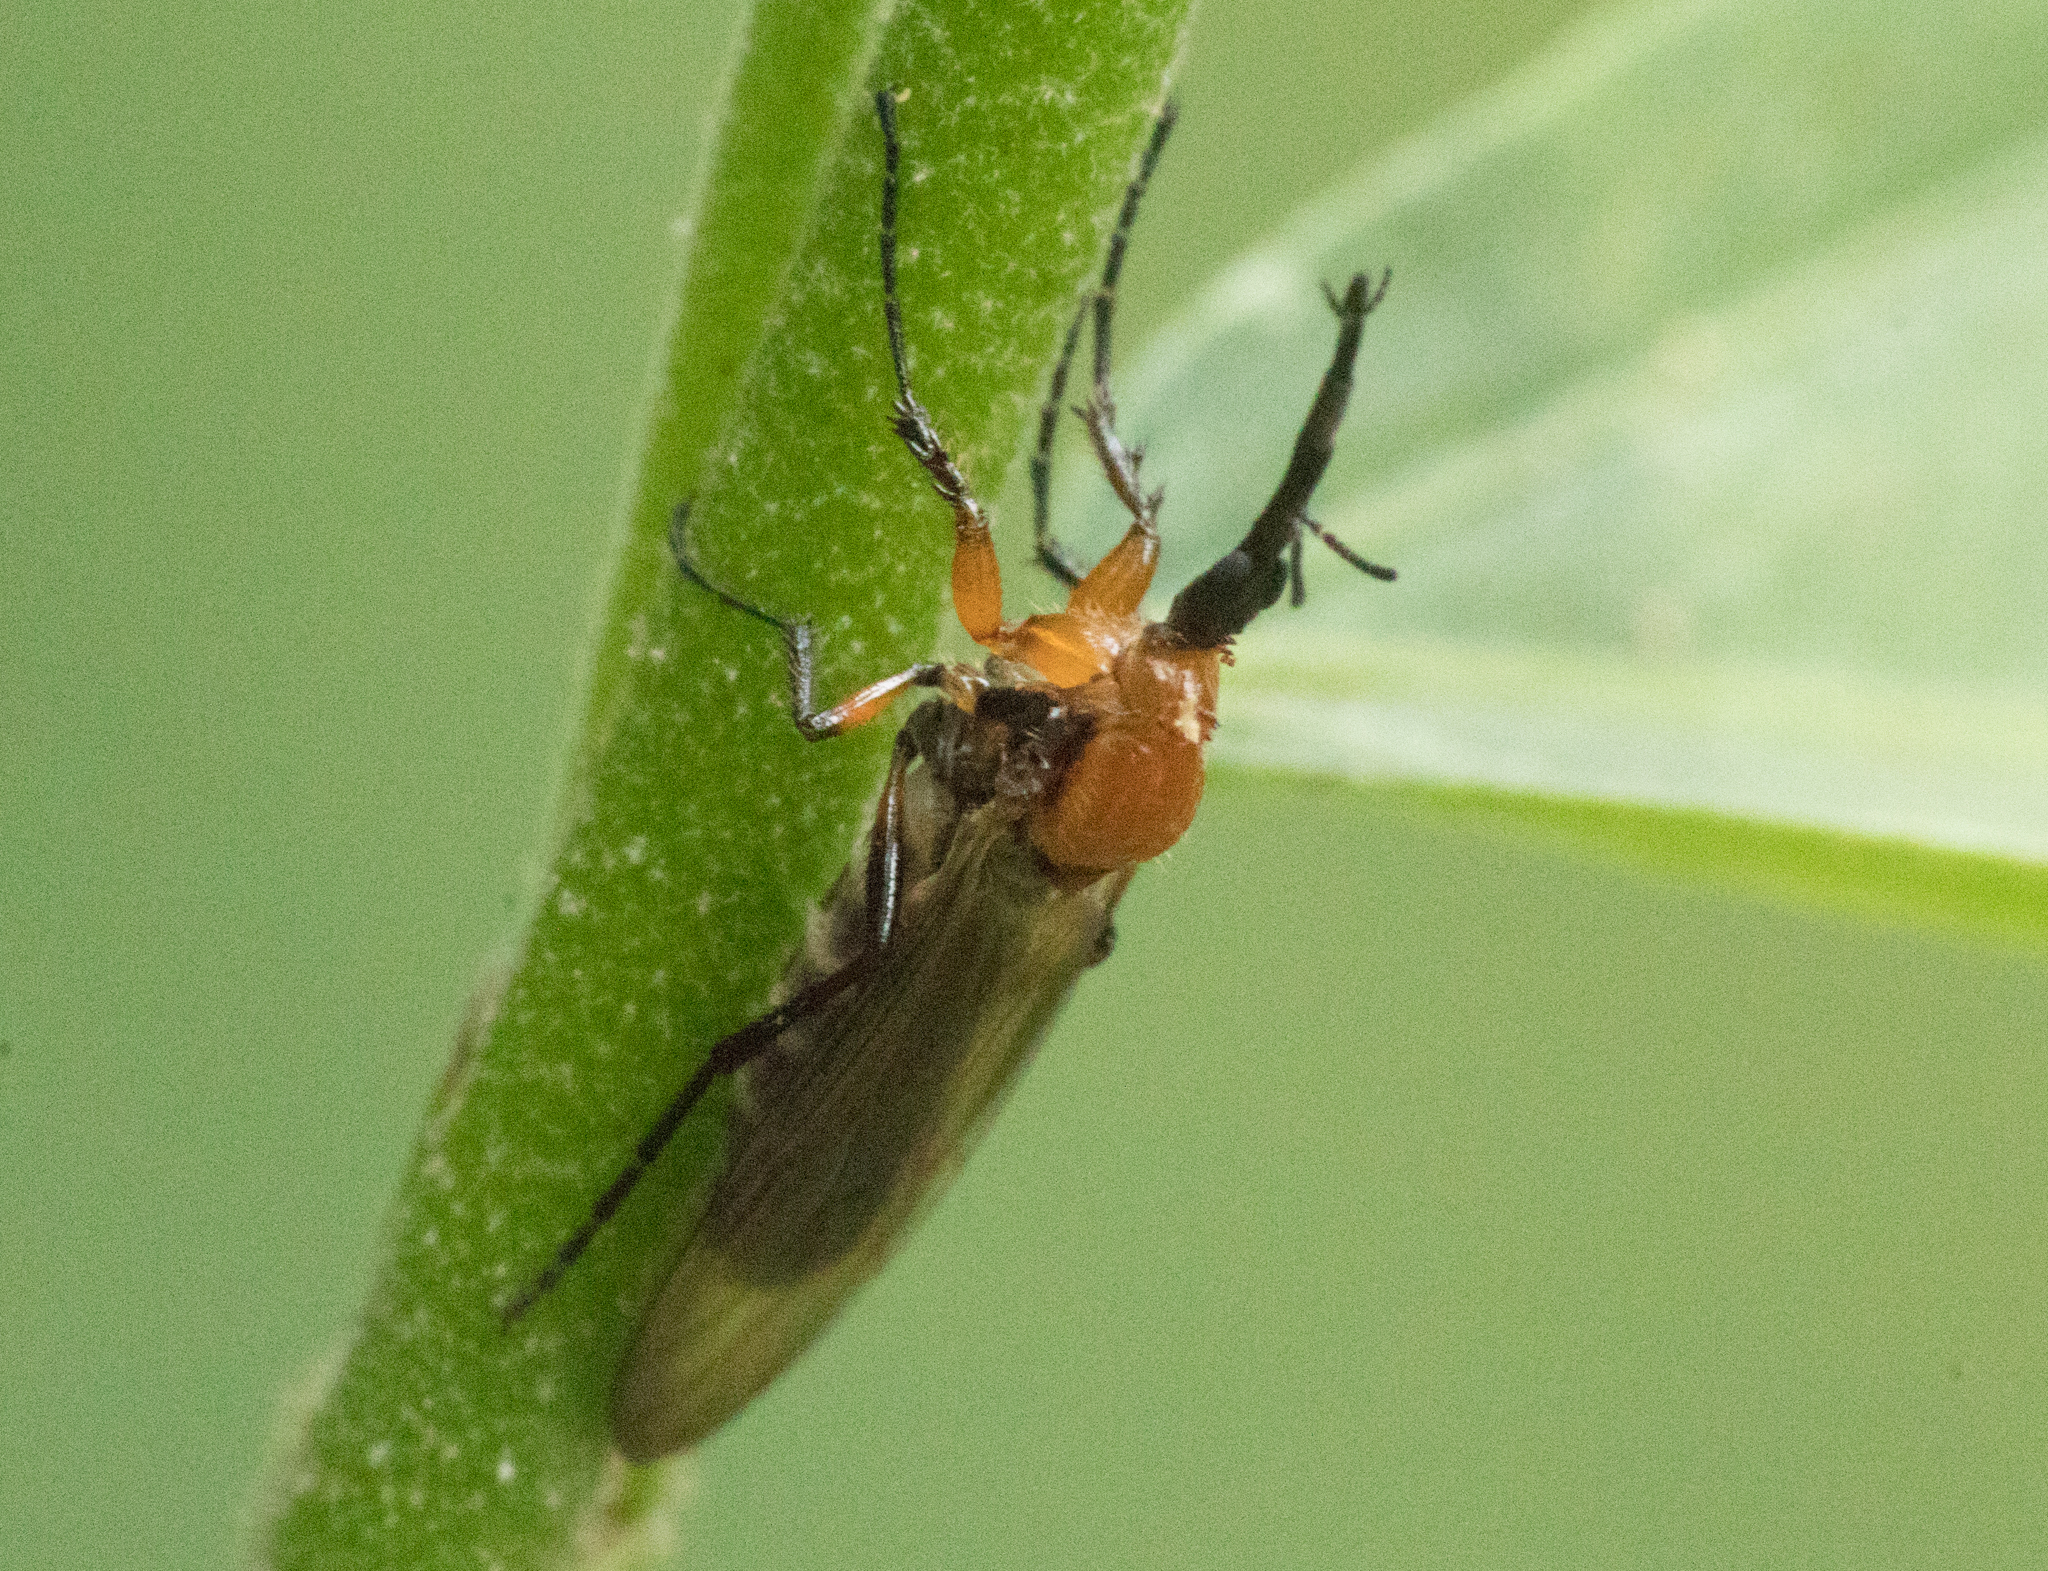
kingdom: Animalia
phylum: Arthropoda
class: Insecta
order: Diptera
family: Bibionidae
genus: Dilophus
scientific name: Dilophus bicoloripes
